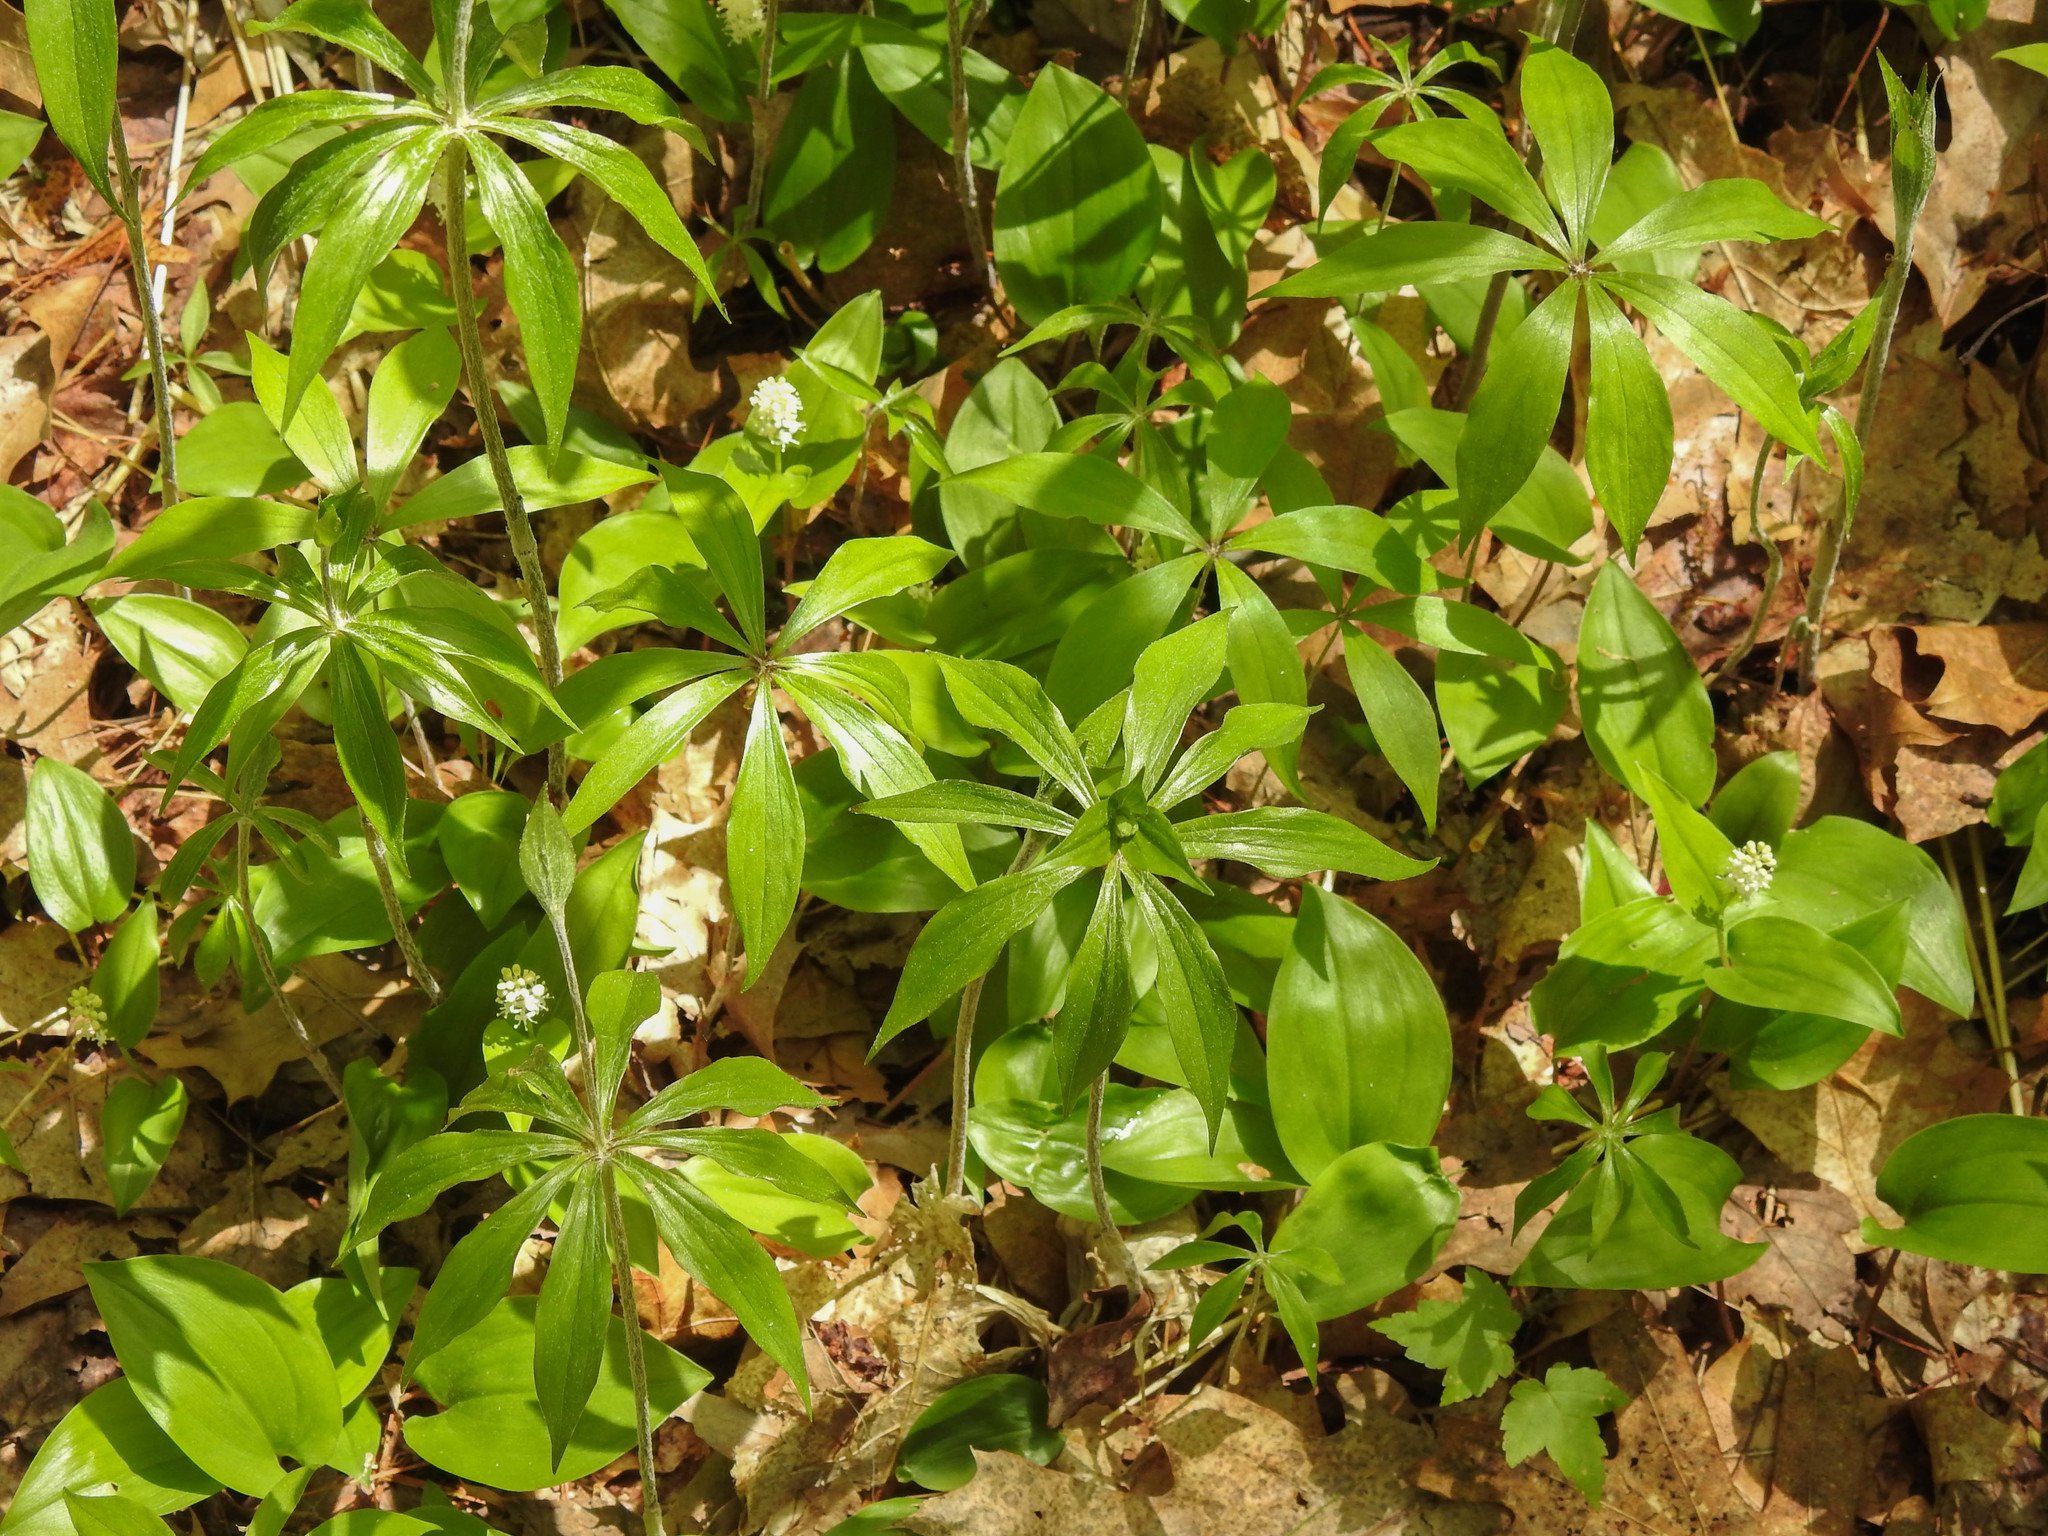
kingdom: Plantae
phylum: Tracheophyta
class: Liliopsida
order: Liliales
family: Liliaceae
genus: Medeola
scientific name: Medeola virginiana
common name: Indian cucumber-root
